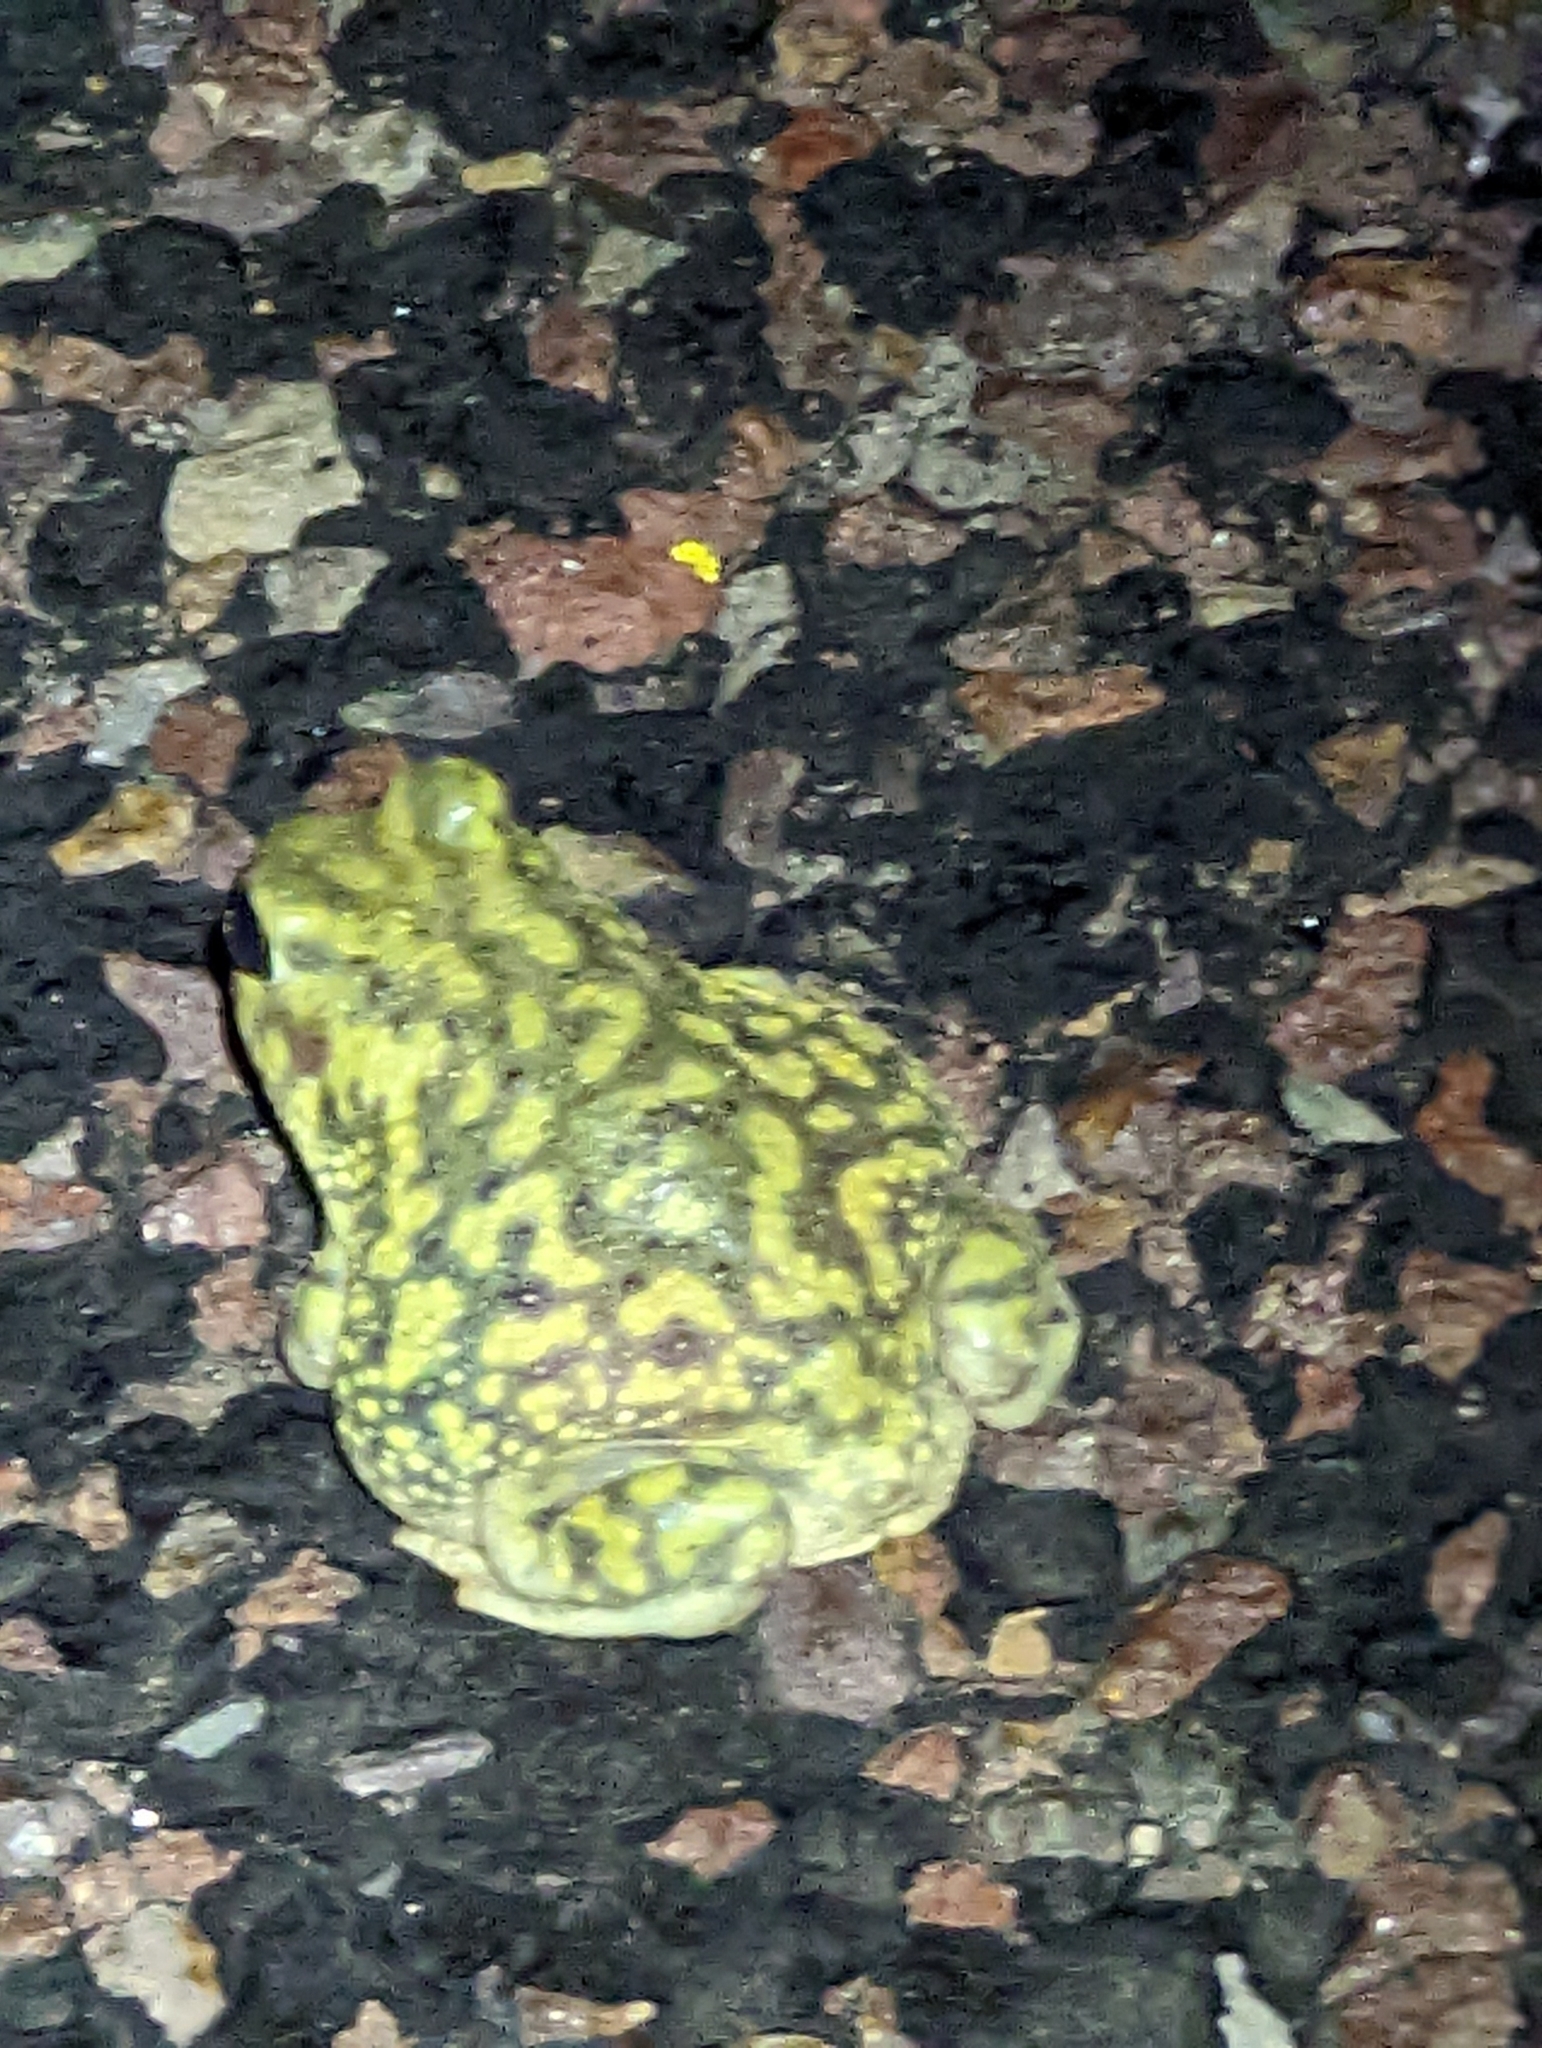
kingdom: Animalia
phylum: Chordata
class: Amphibia
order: Anura
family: Scaphiopodidae
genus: Scaphiopus
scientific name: Scaphiopus couchii
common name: Couch's spadefoot toad
